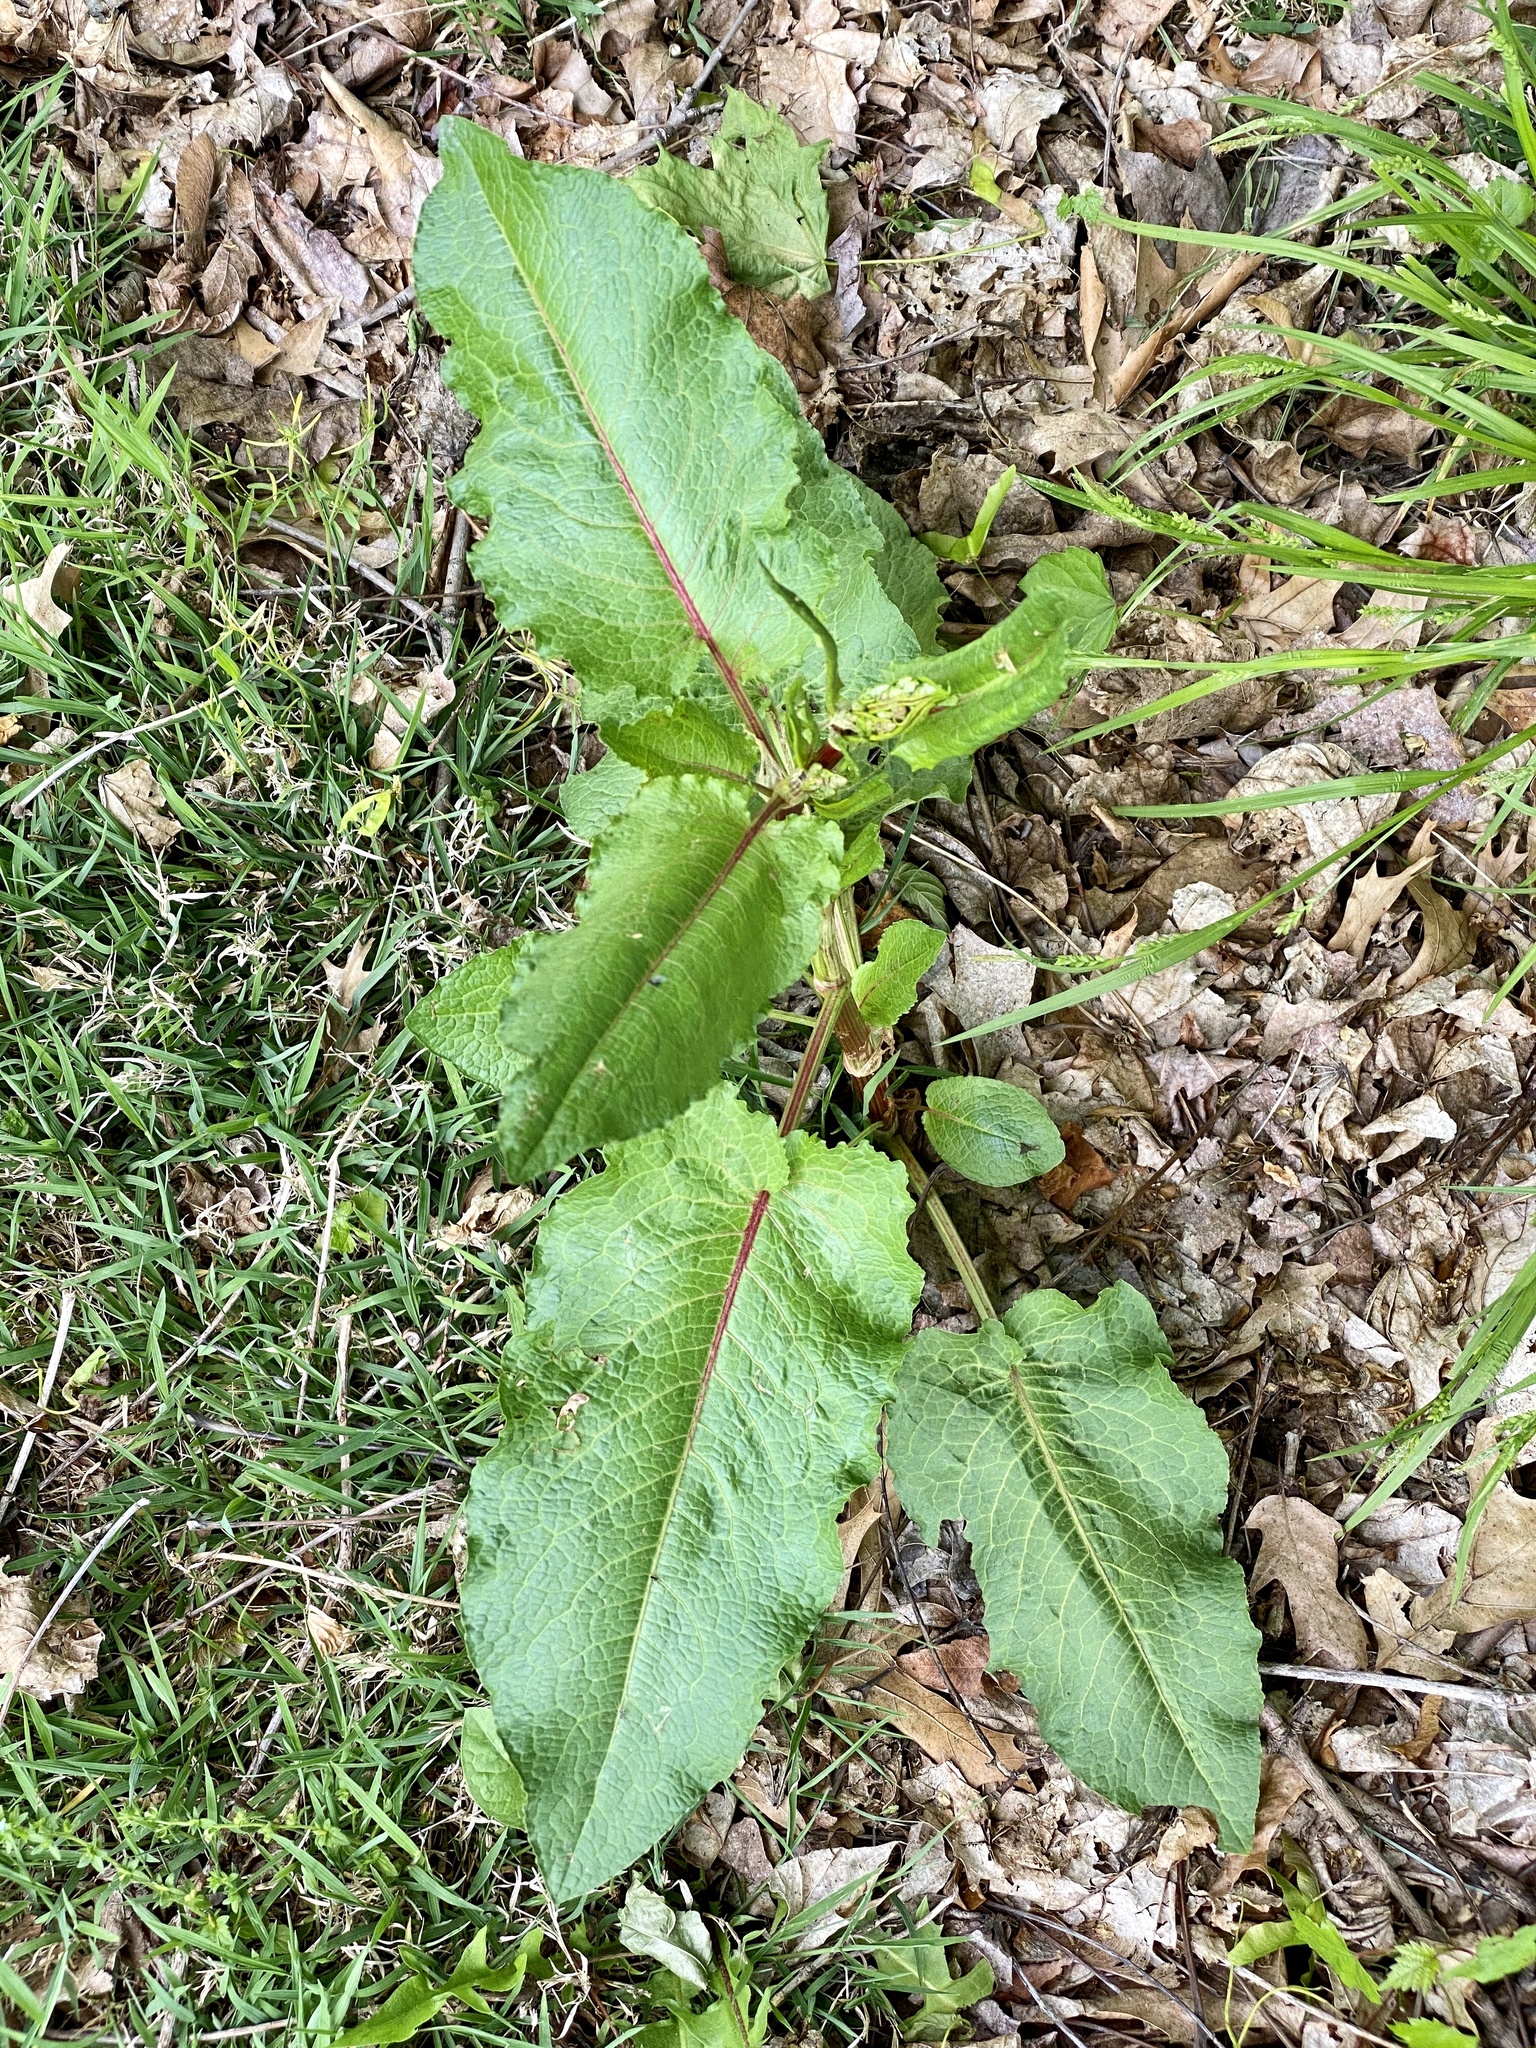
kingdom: Plantae
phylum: Tracheophyta
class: Magnoliopsida
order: Caryophyllales
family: Polygonaceae
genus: Rumex
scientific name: Rumex obtusifolius
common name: Bitter dock
